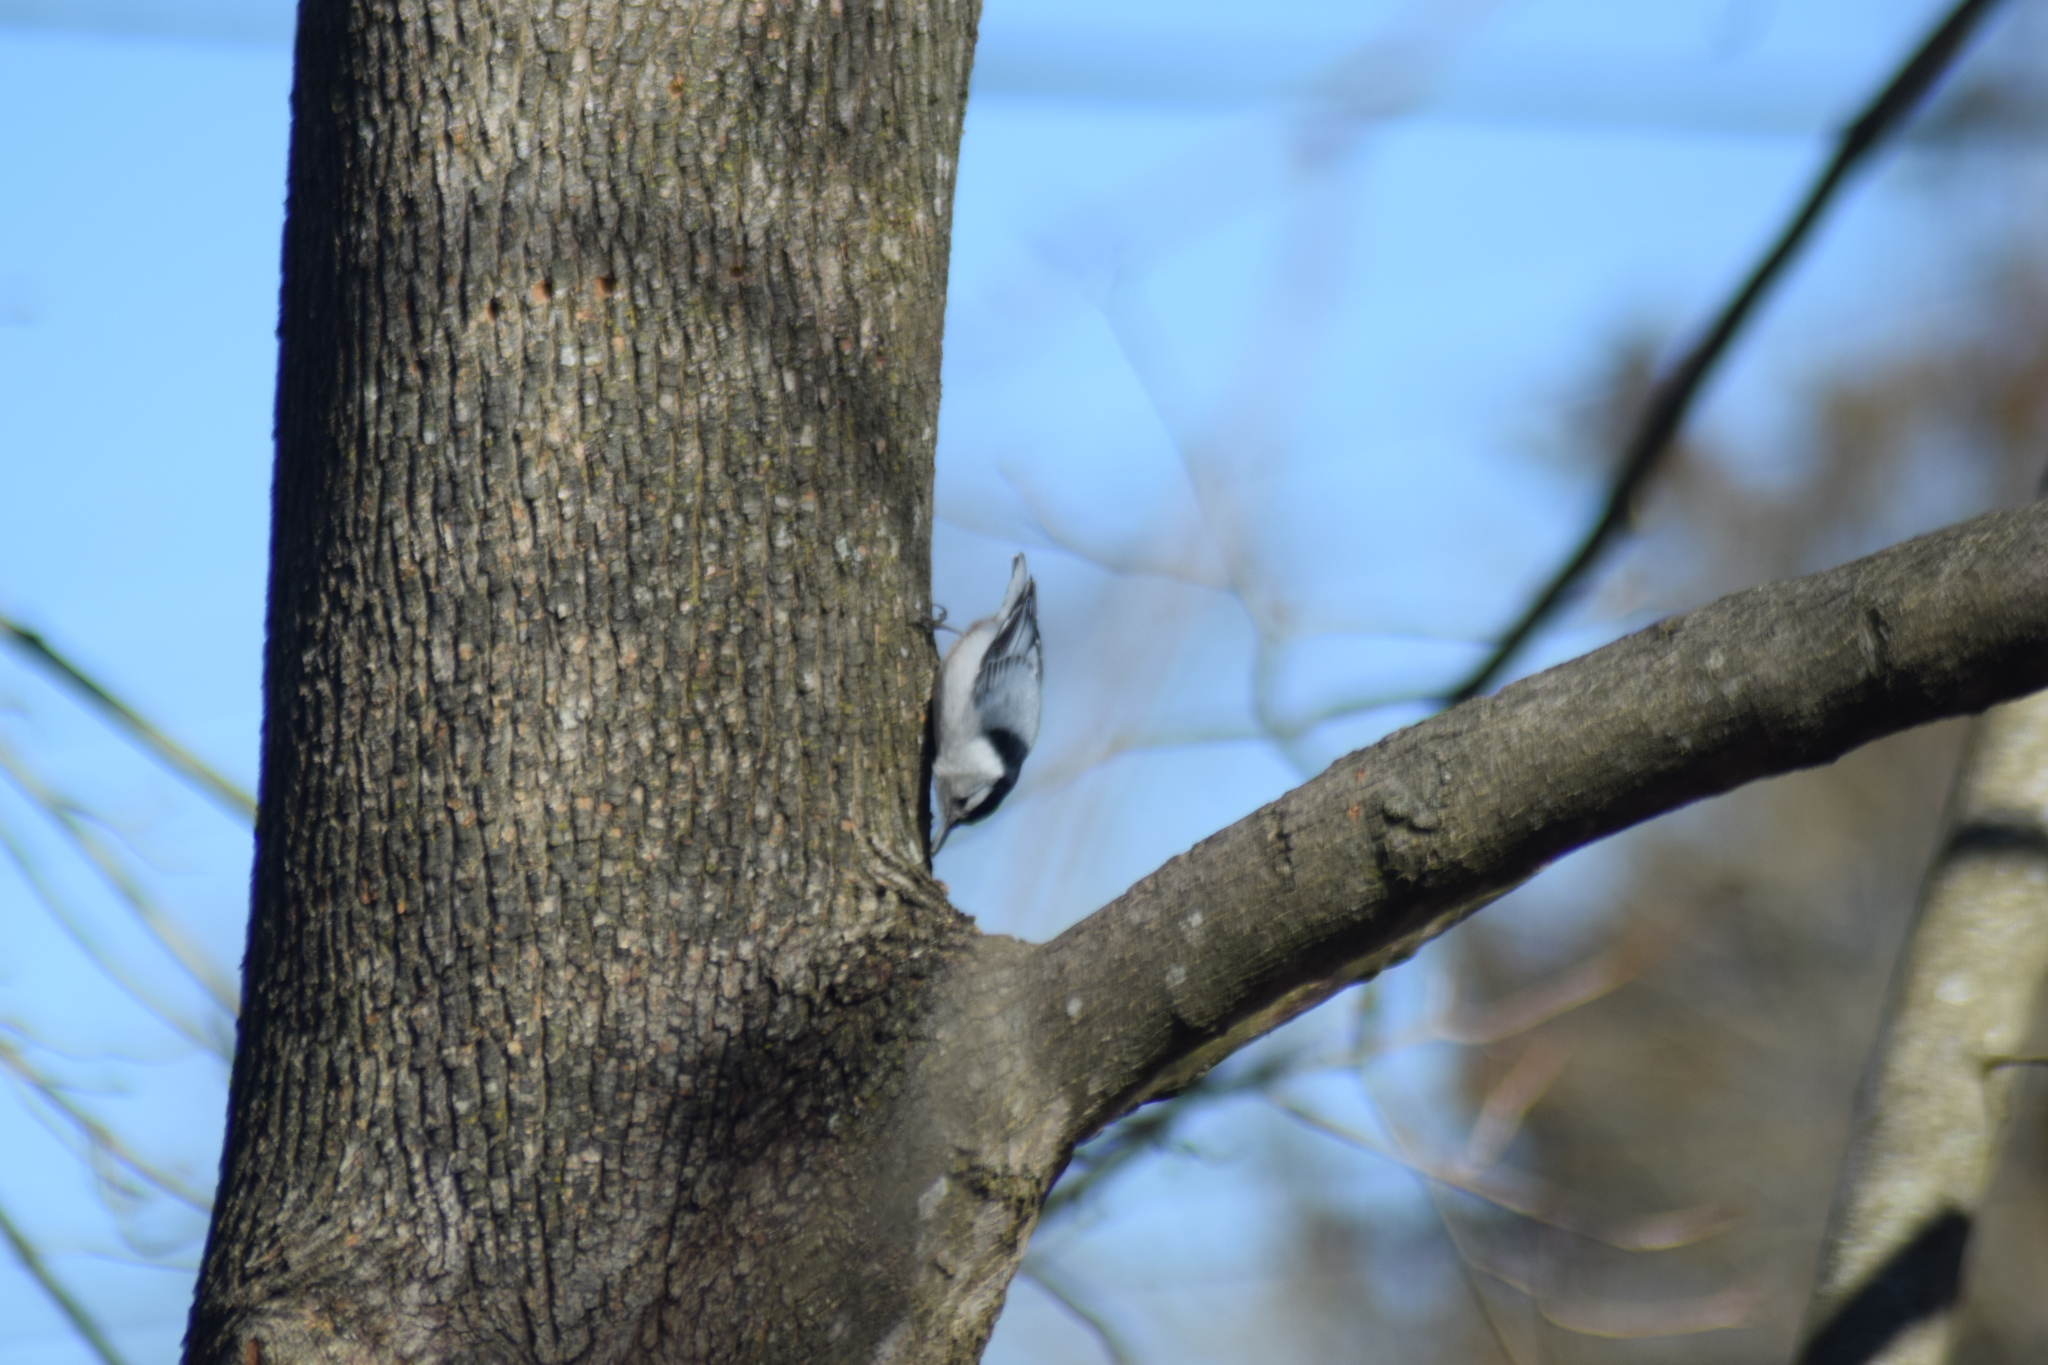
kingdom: Animalia
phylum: Chordata
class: Aves
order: Passeriformes
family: Sittidae
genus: Sitta
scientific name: Sitta carolinensis
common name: White-breasted nuthatch
